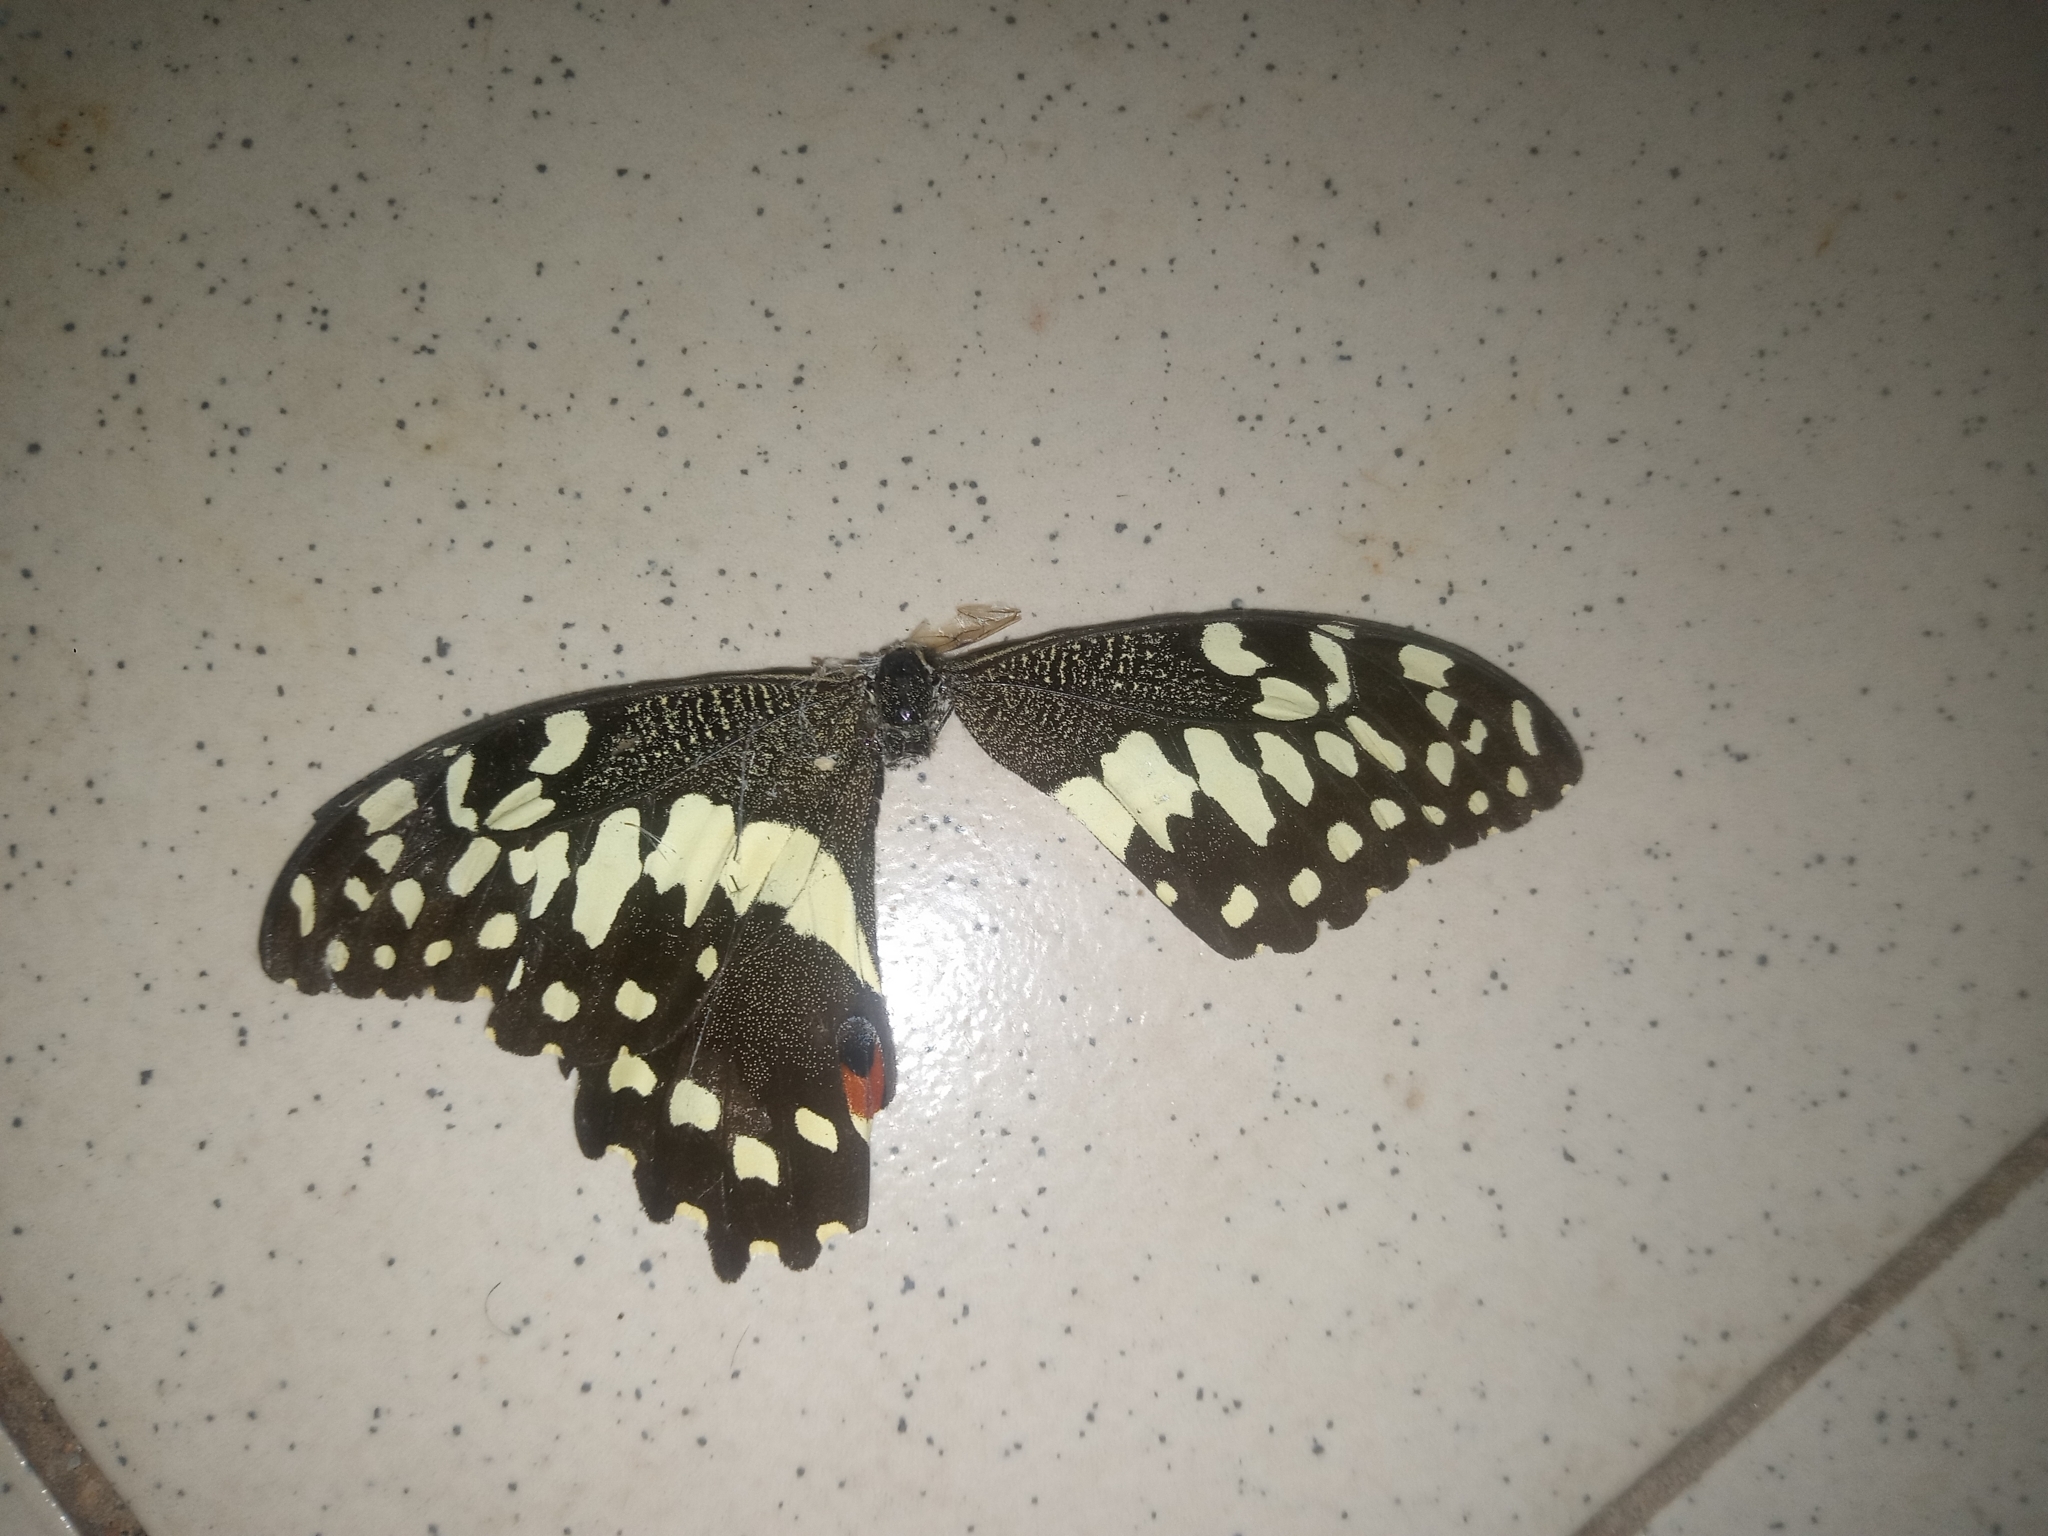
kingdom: Animalia
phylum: Arthropoda
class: Insecta
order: Lepidoptera
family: Papilionidae
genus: Papilio
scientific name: Papilio demodocus
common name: Christmas butterfly
